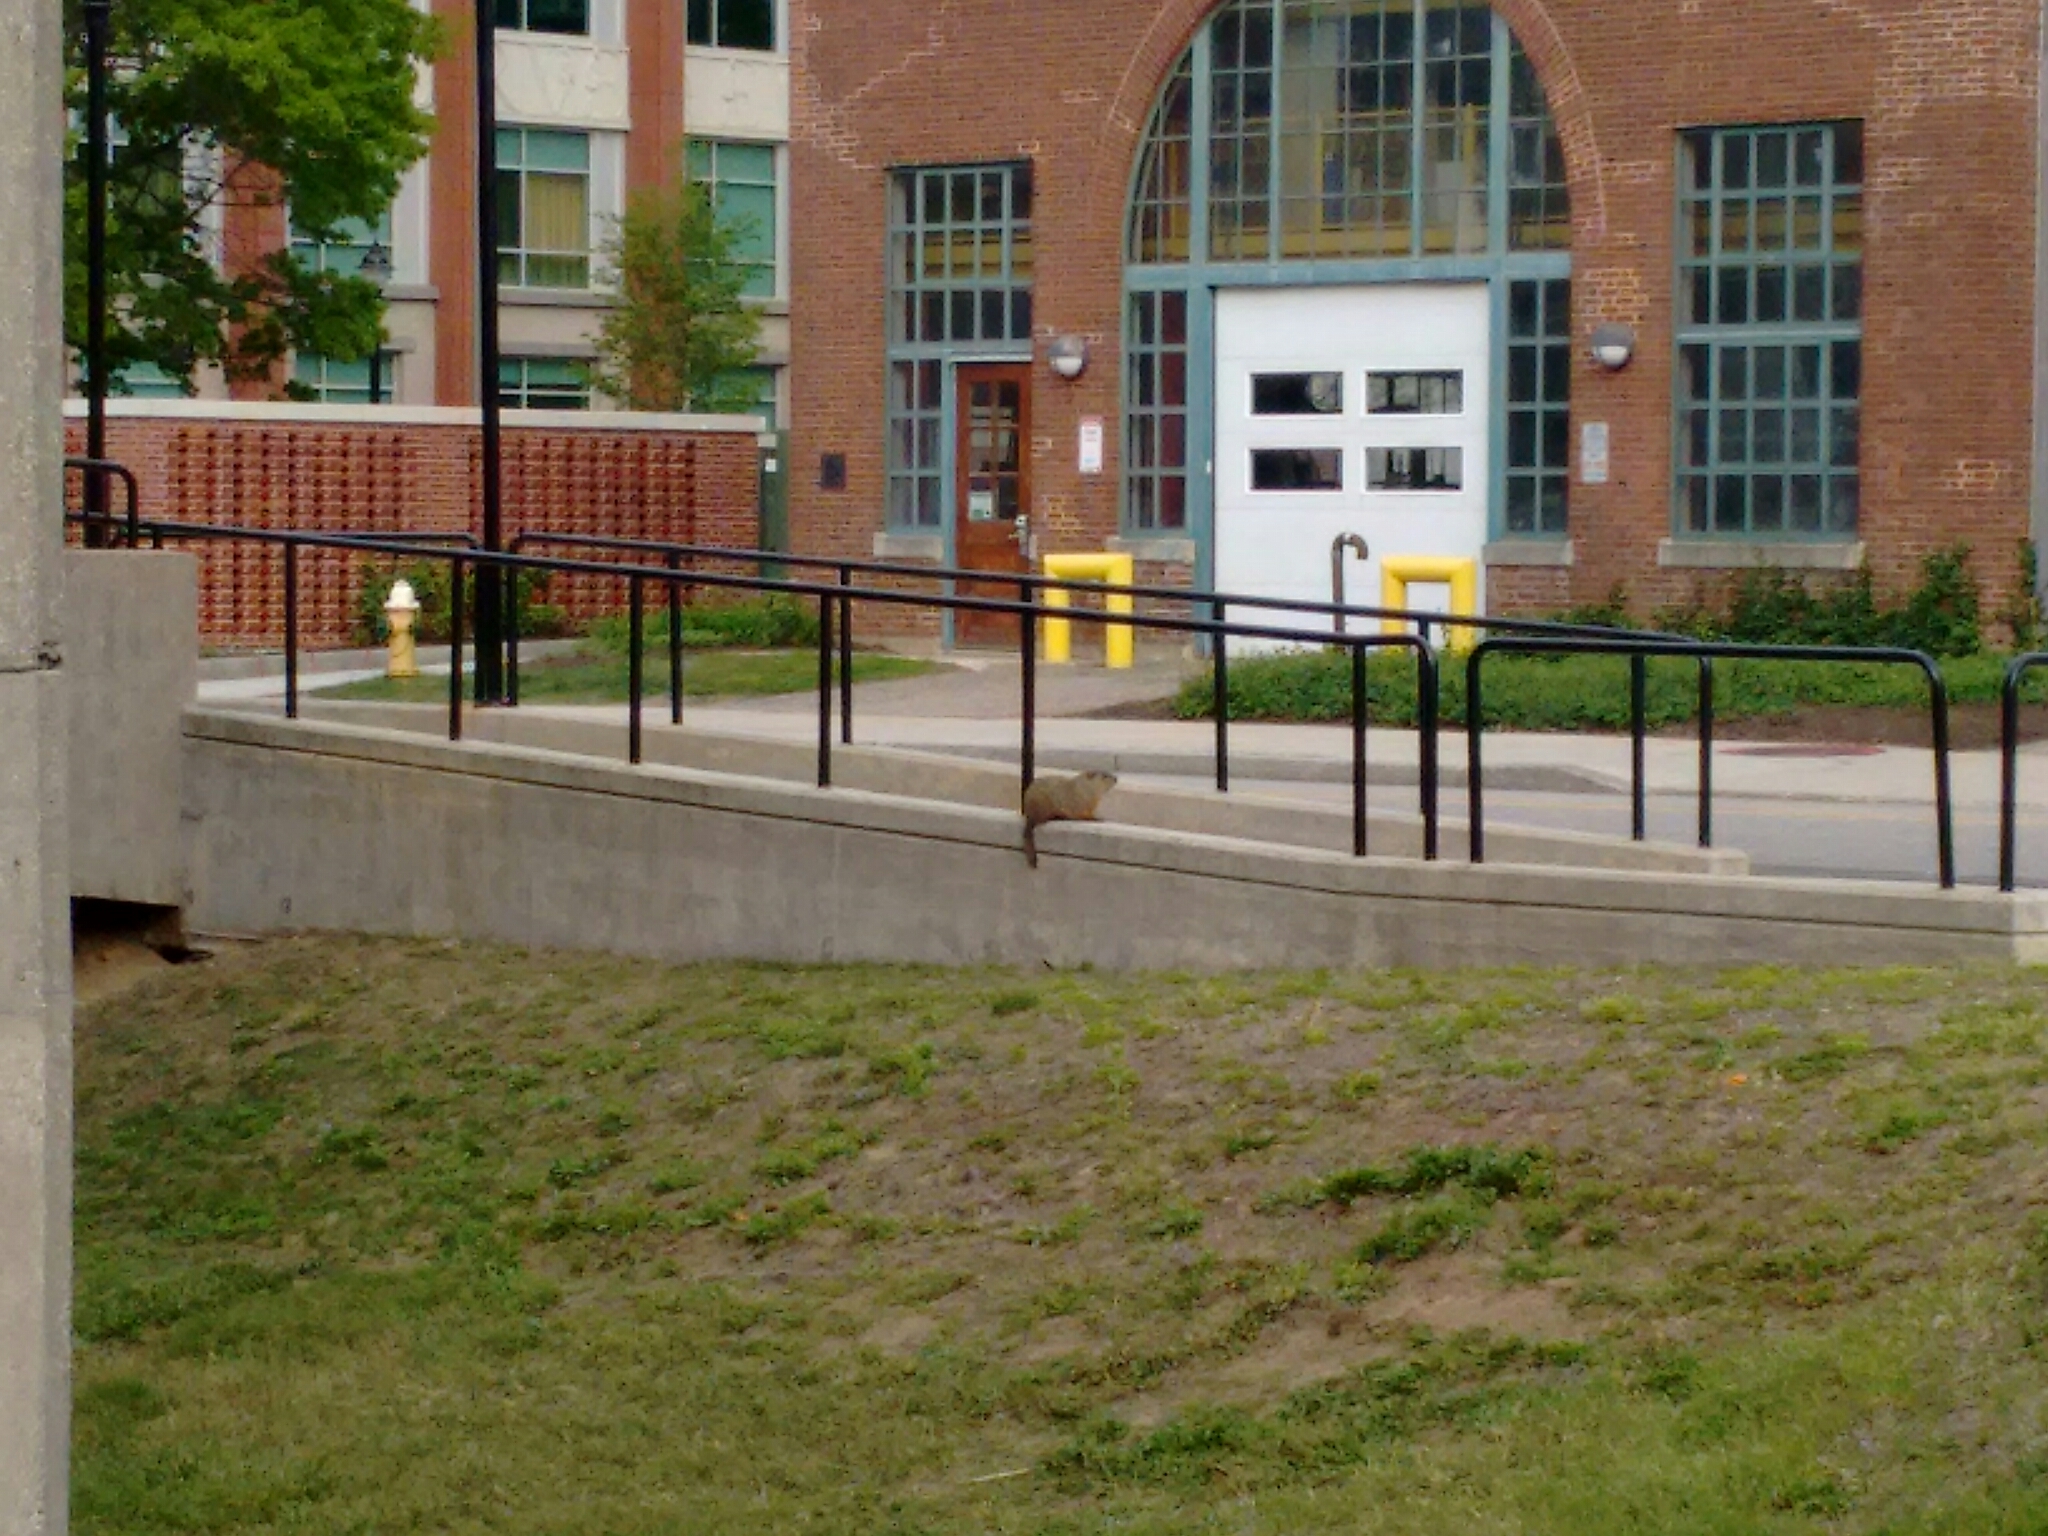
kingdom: Animalia
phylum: Chordata
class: Mammalia
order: Rodentia
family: Sciuridae
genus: Marmota
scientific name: Marmota monax
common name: Groundhog
